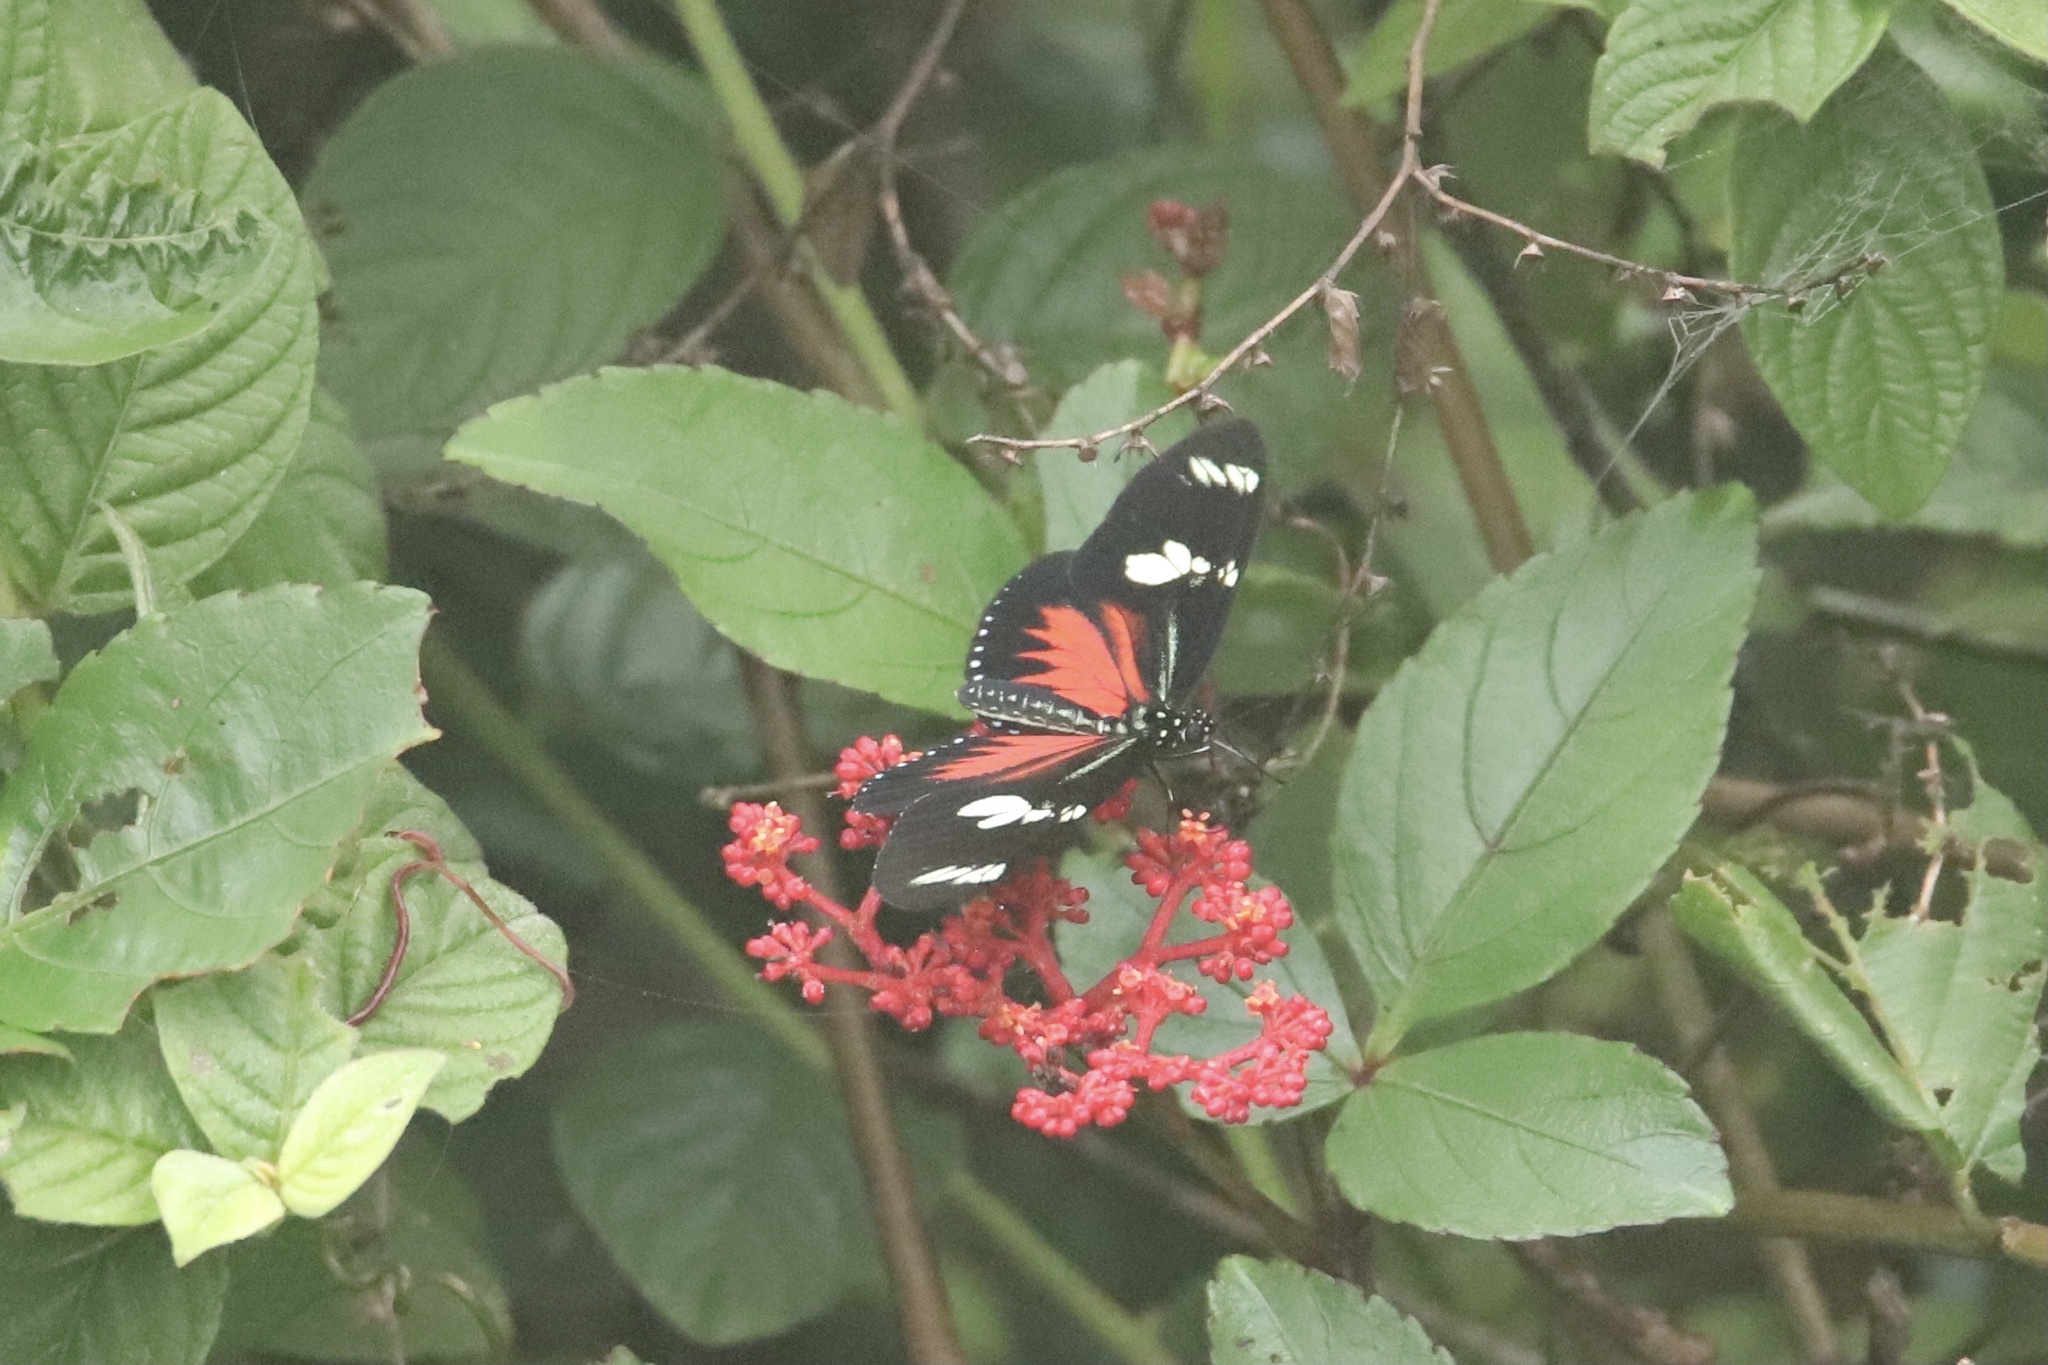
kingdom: Animalia
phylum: Arthropoda
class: Insecta
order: Lepidoptera
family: Nymphalidae
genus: Heliconius
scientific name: Heliconius doris
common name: Doris longwing
